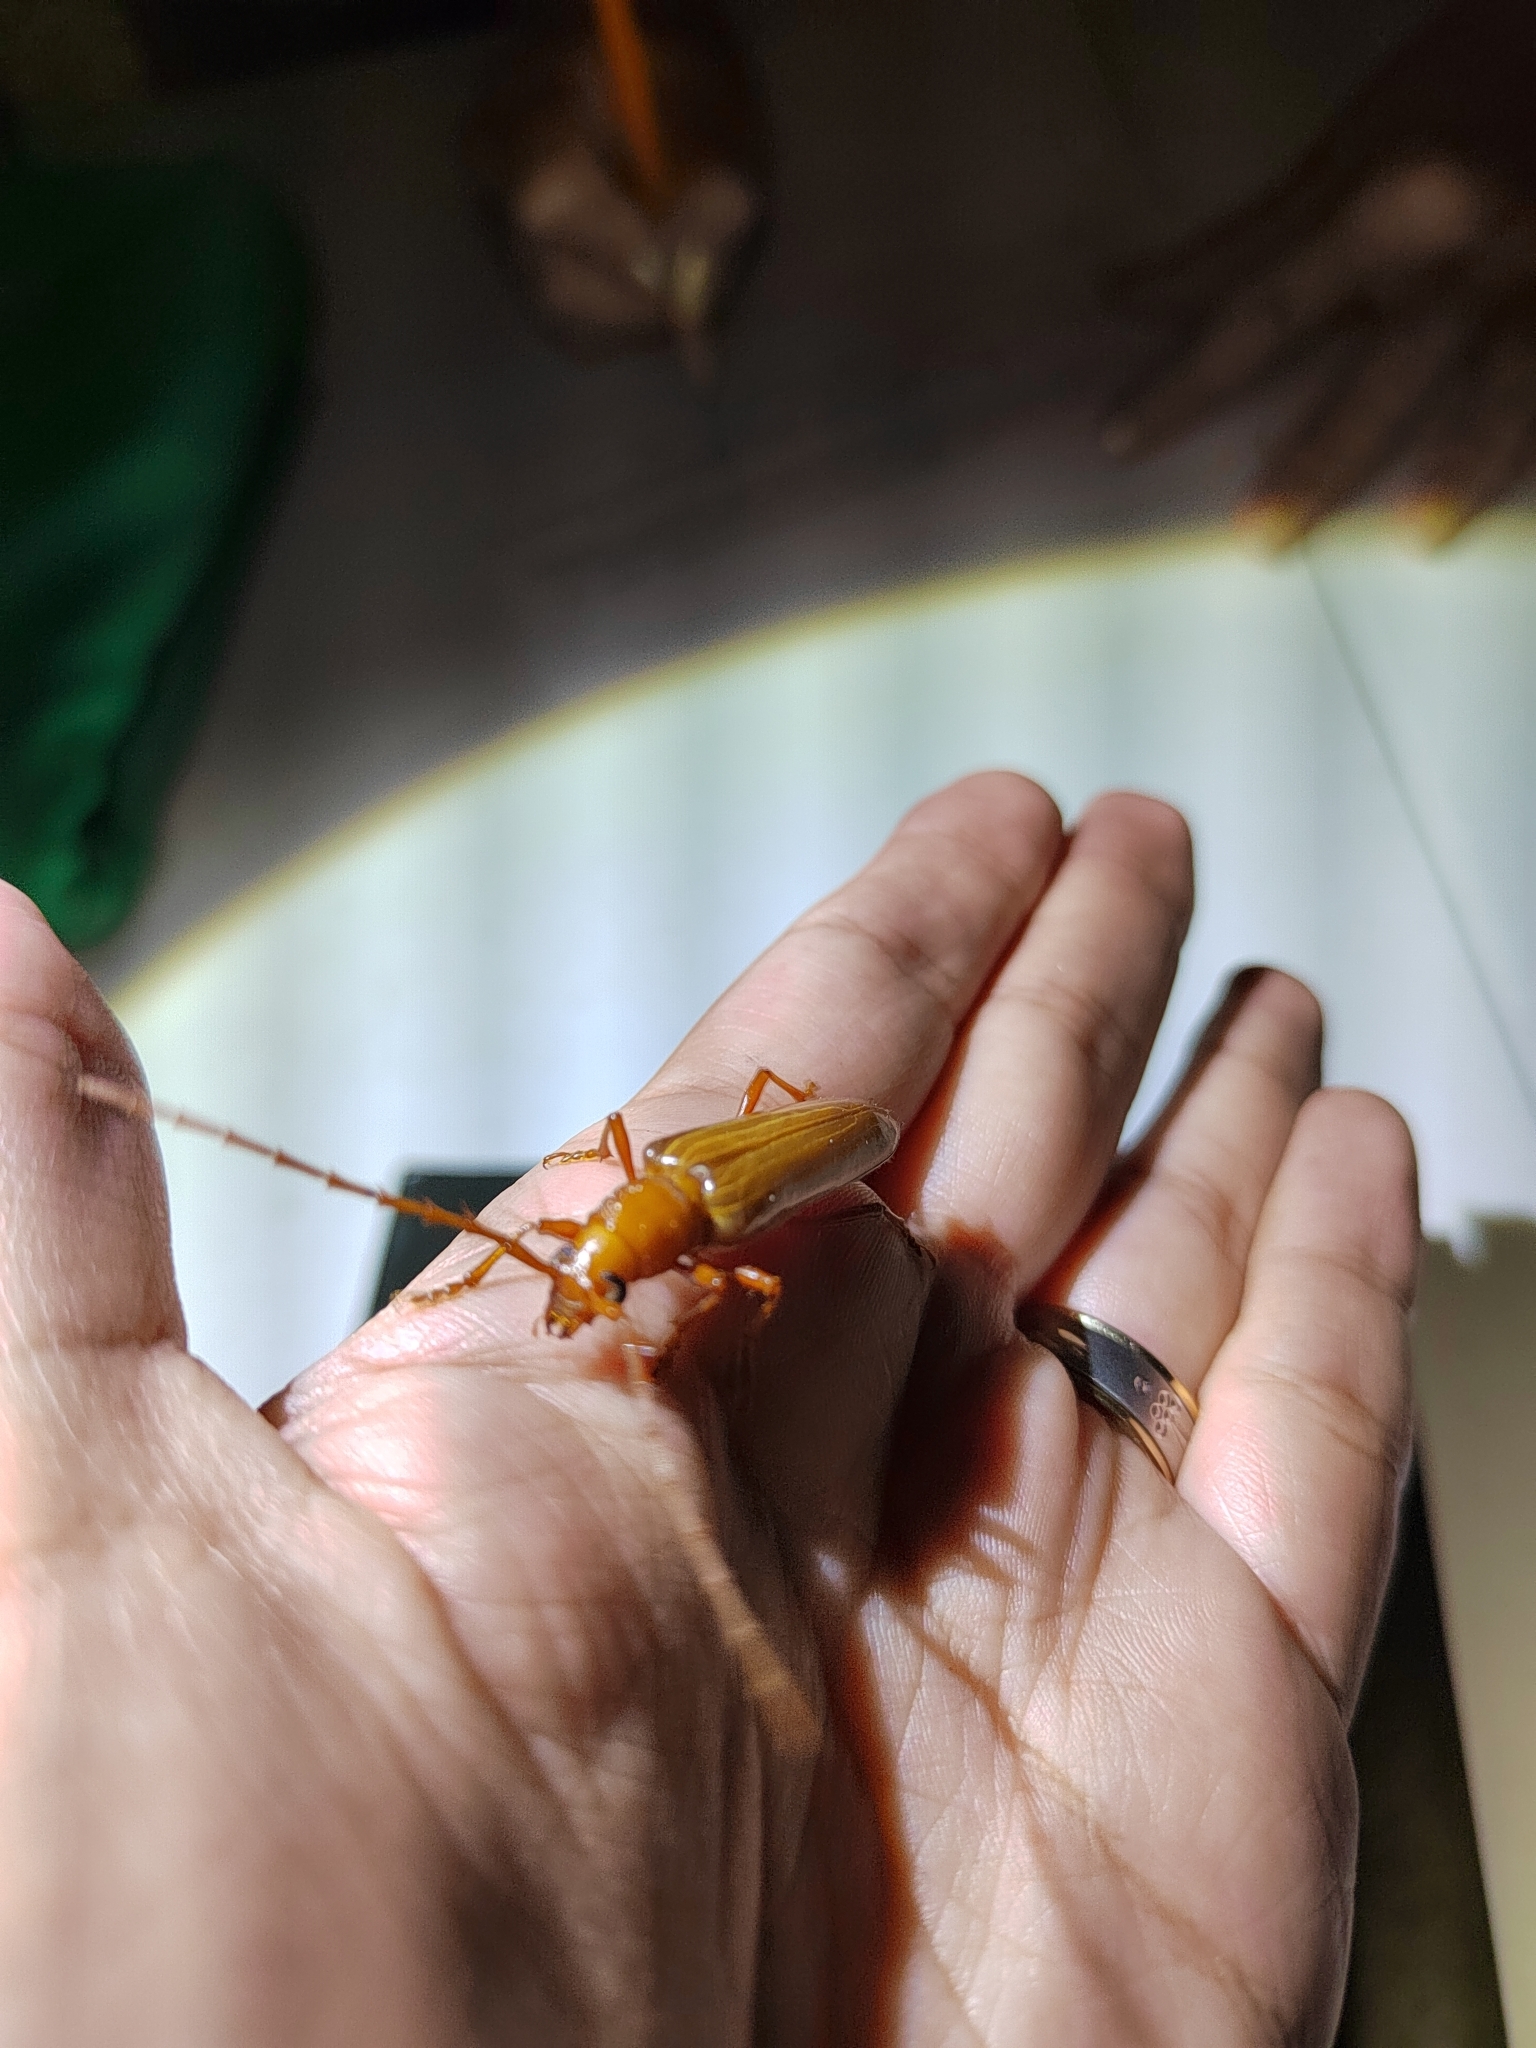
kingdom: Animalia
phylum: Arthropoda
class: Insecta
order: Coleoptera
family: Cerambycidae
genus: Malacopterus
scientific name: Malacopterus tenellus
